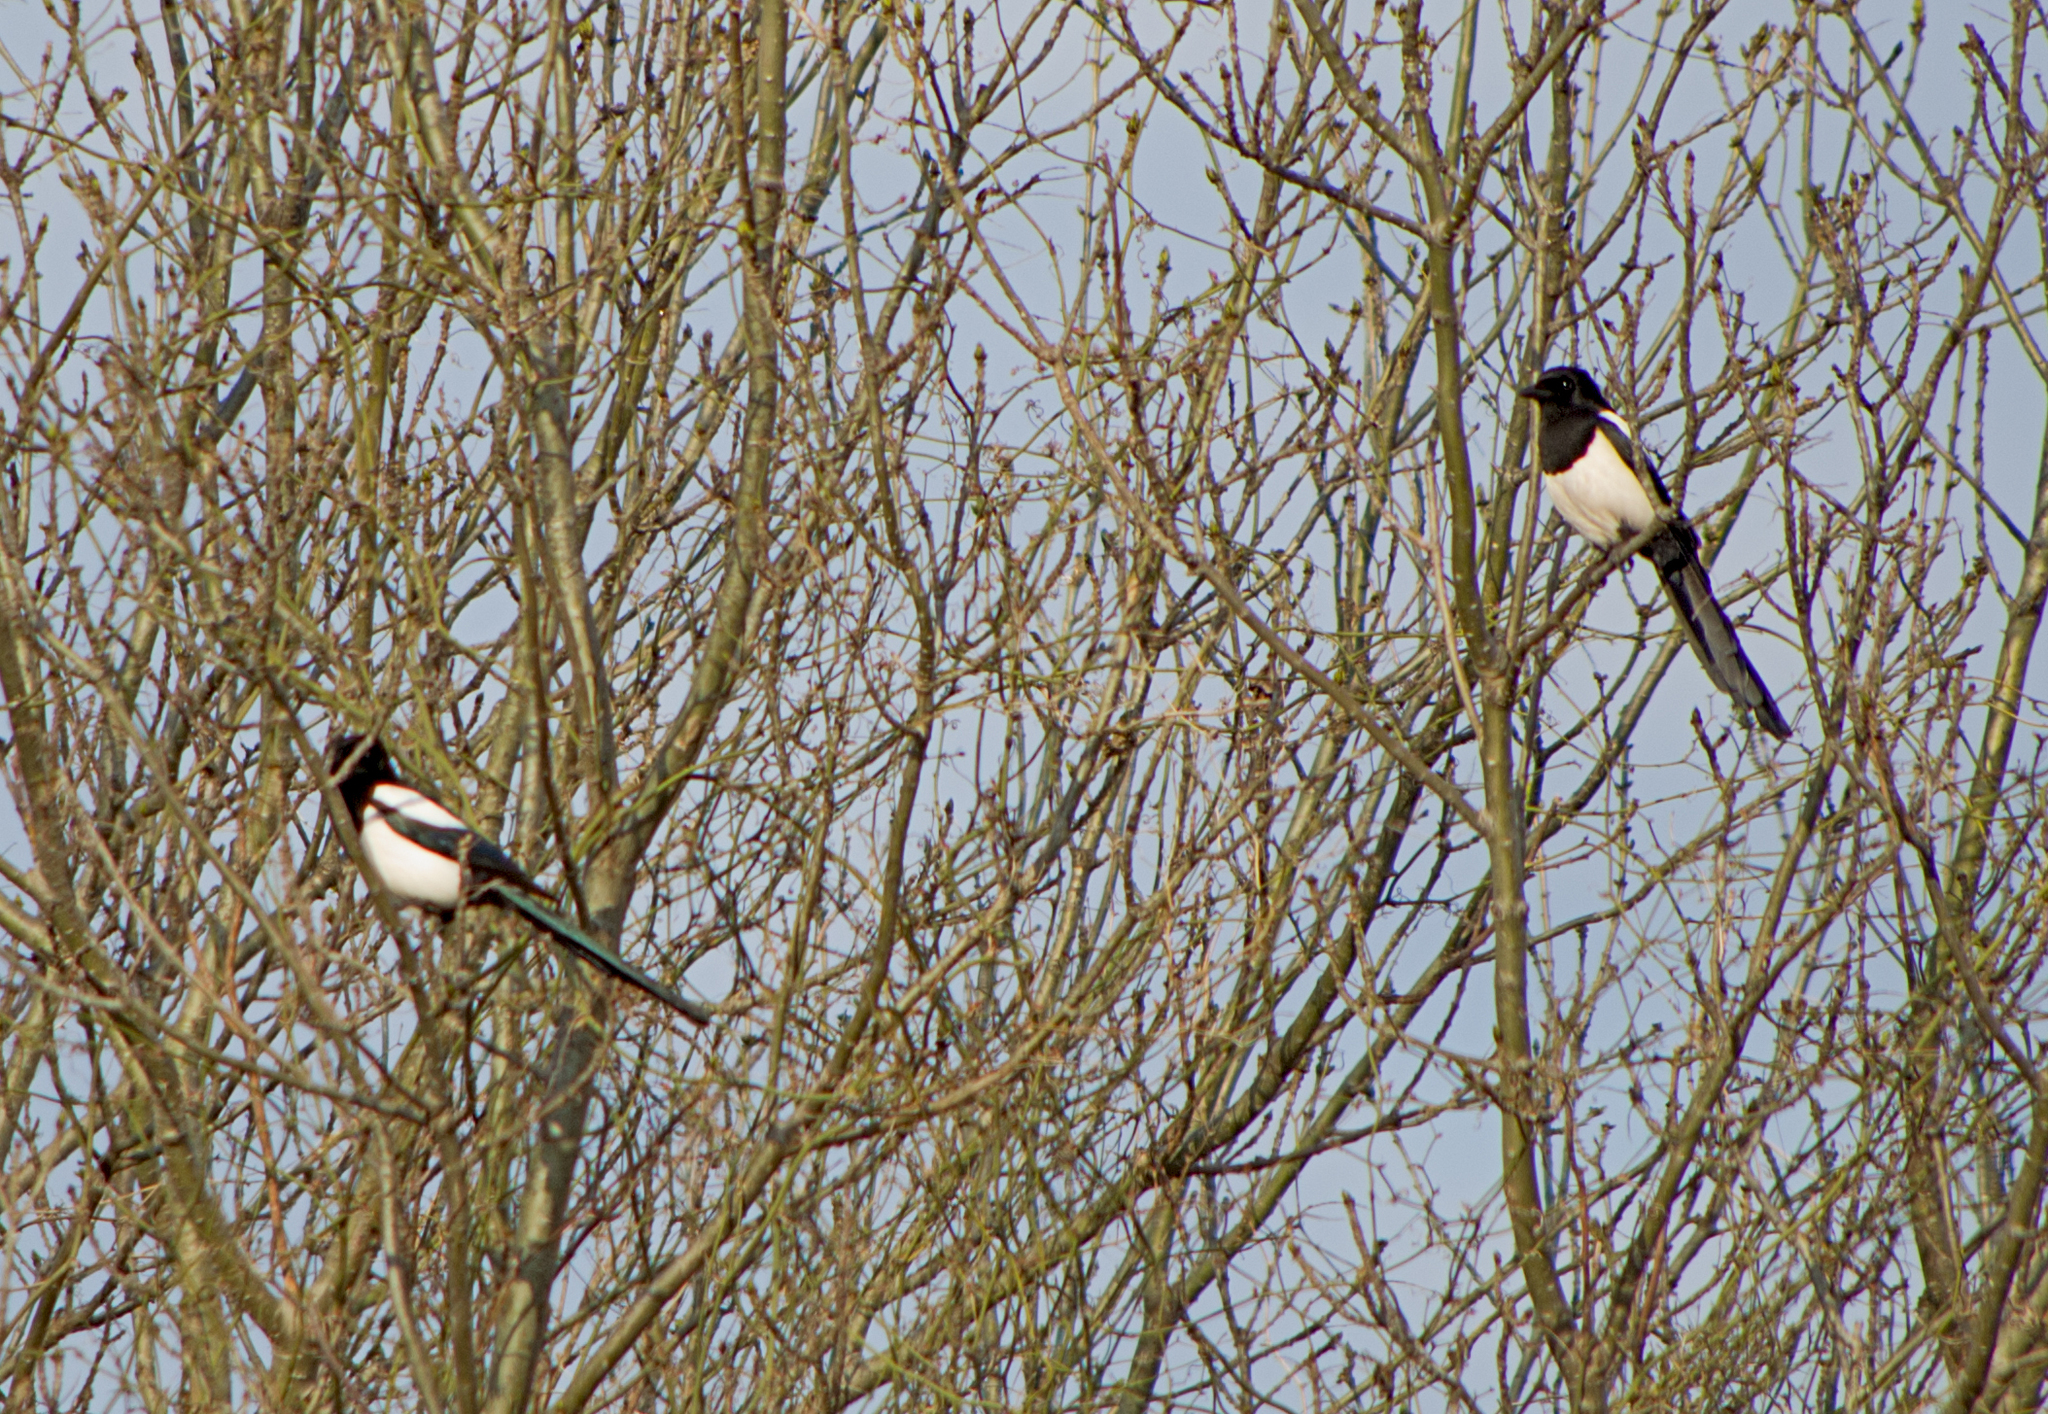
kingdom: Animalia
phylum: Chordata
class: Aves
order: Passeriformes
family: Corvidae
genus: Pica
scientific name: Pica pica
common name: Eurasian magpie
